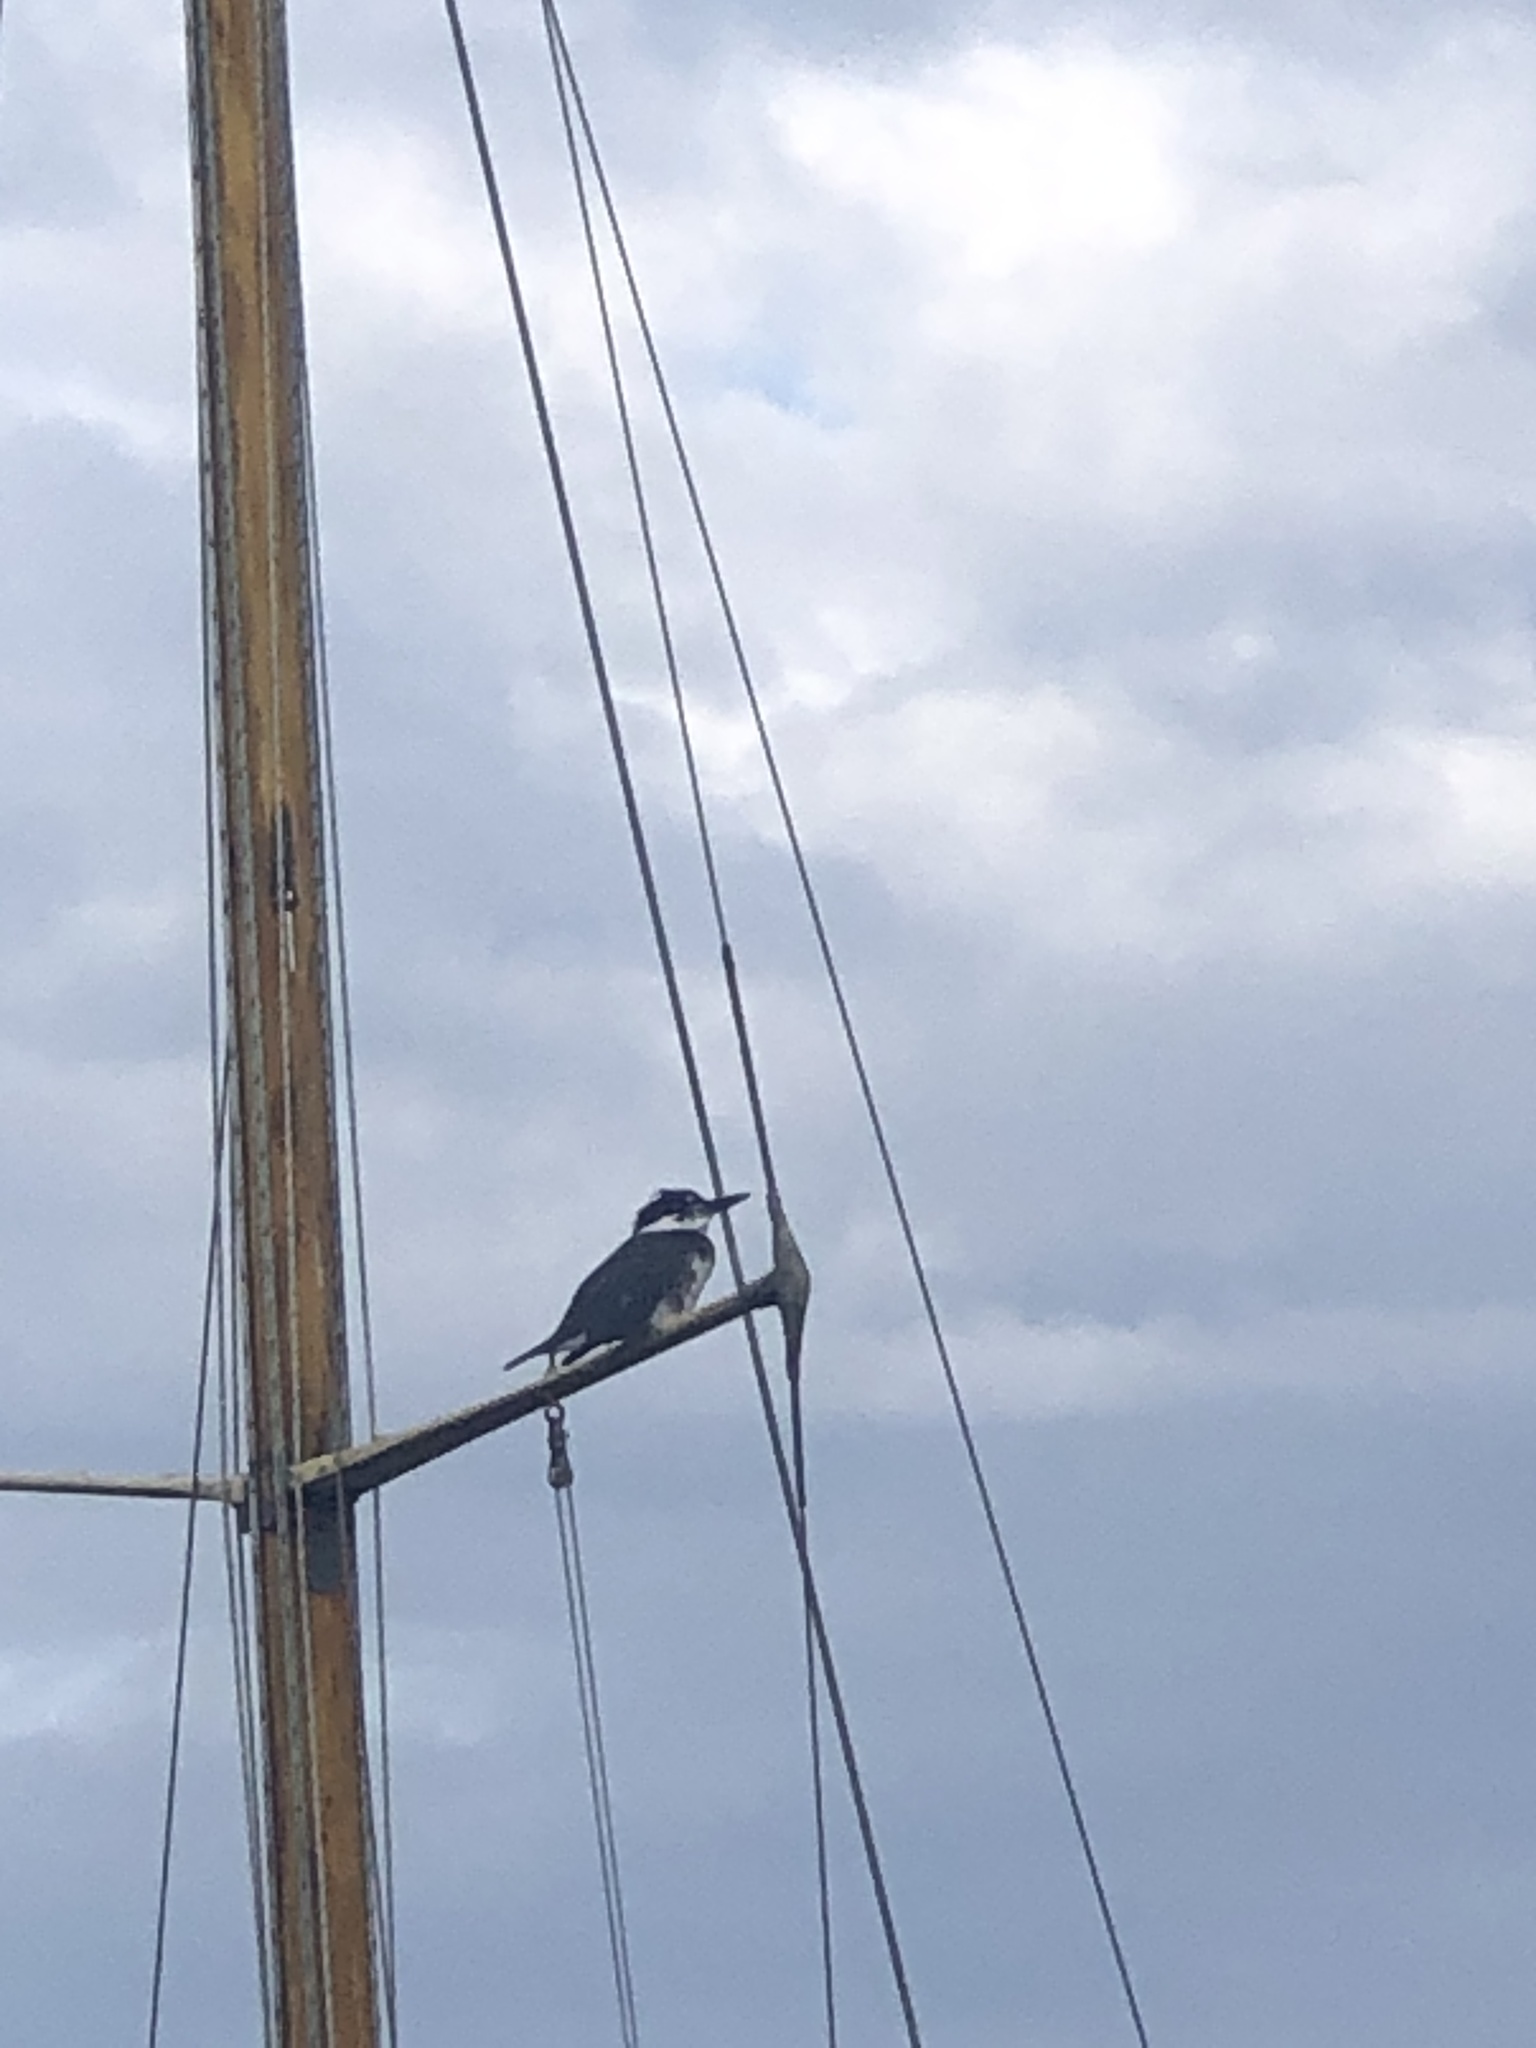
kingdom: Animalia
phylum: Chordata
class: Aves
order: Coraciiformes
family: Alcedinidae
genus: Megaceryle
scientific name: Megaceryle alcyon
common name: Belted kingfisher
